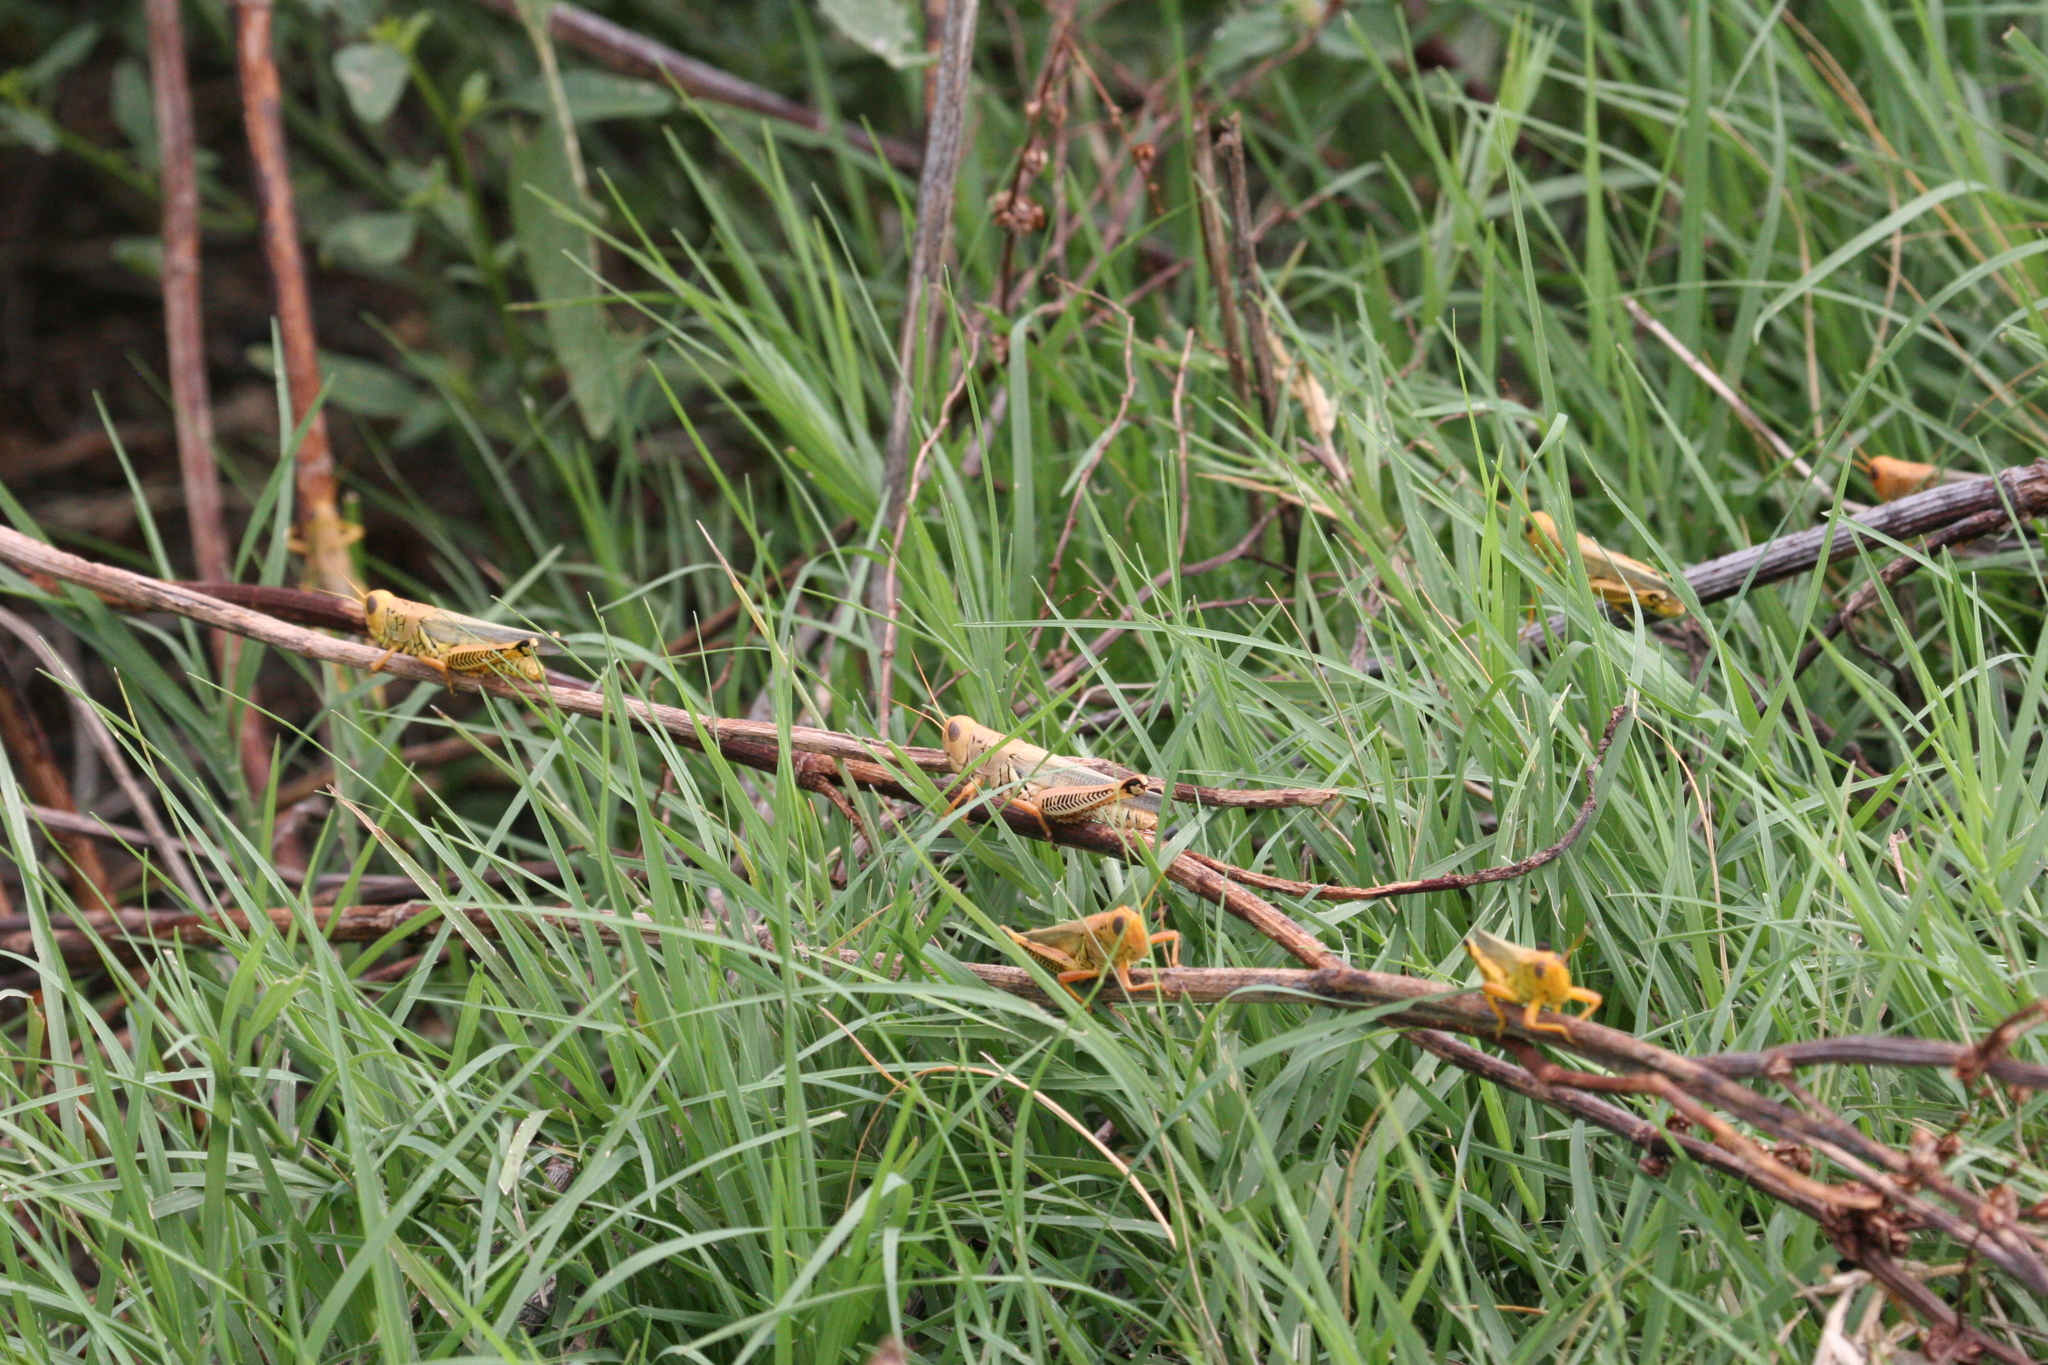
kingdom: Animalia
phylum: Arthropoda
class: Insecta
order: Orthoptera
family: Acrididae
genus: Melanoplus
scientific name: Melanoplus differentialis
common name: Differential grasshopper
